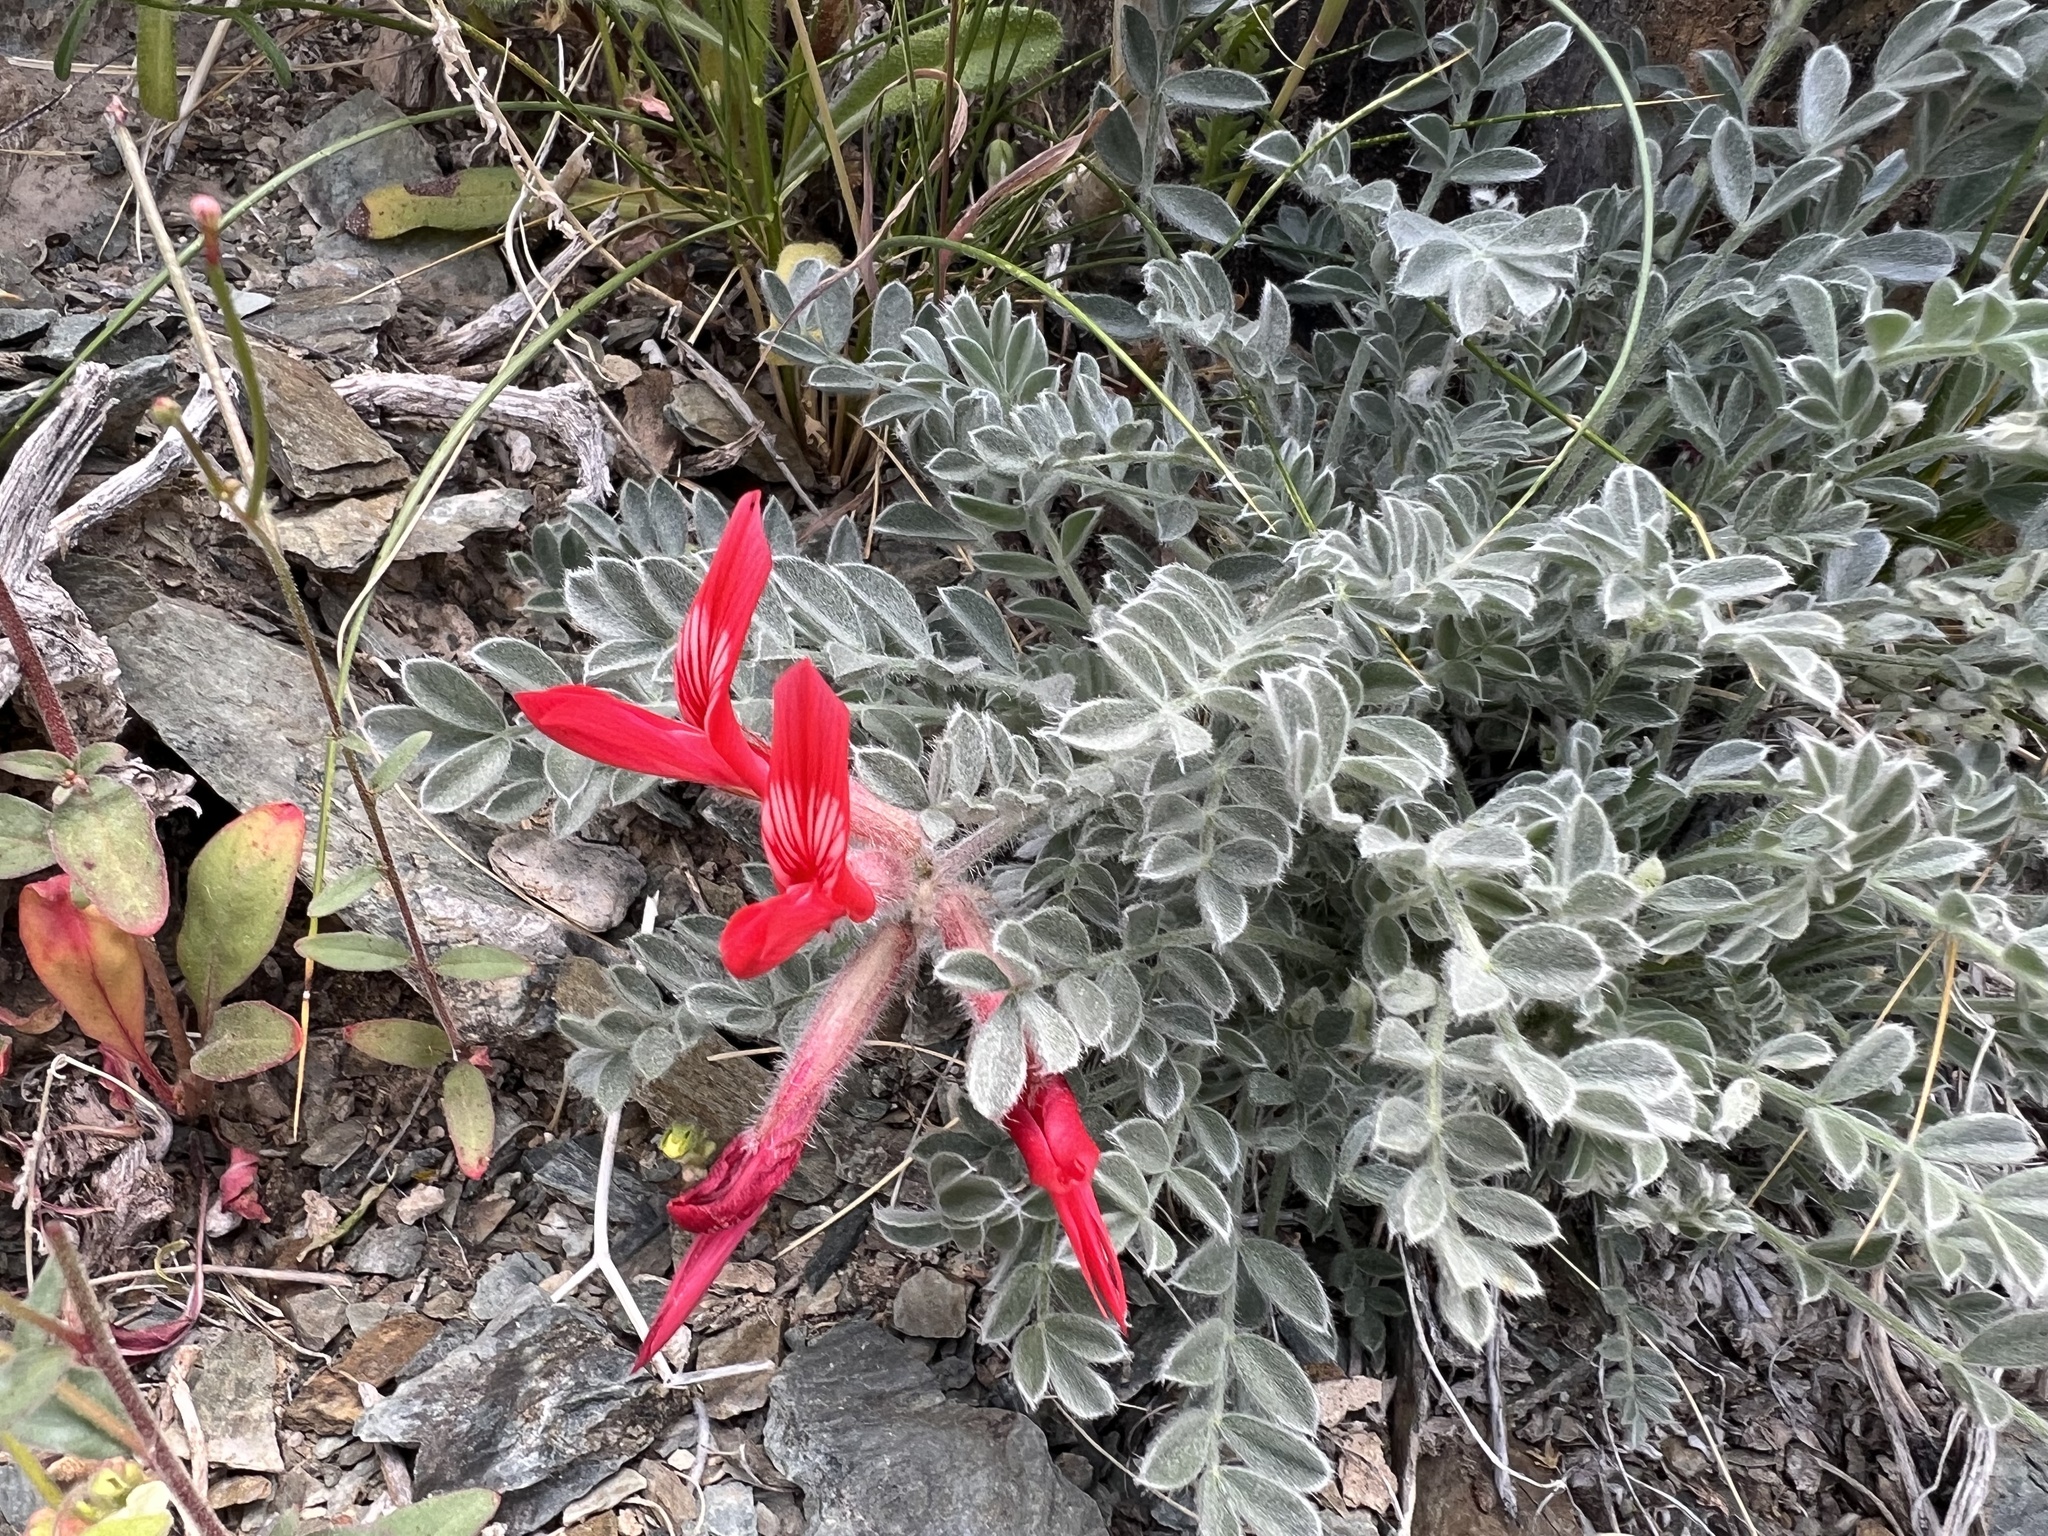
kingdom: Plantae
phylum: Tracheophyta
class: Magnoliopsida
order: Fabales
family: Fabaceae
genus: Astragalus
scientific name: Astragalus coccineus
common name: Scarlet milk-vetch
